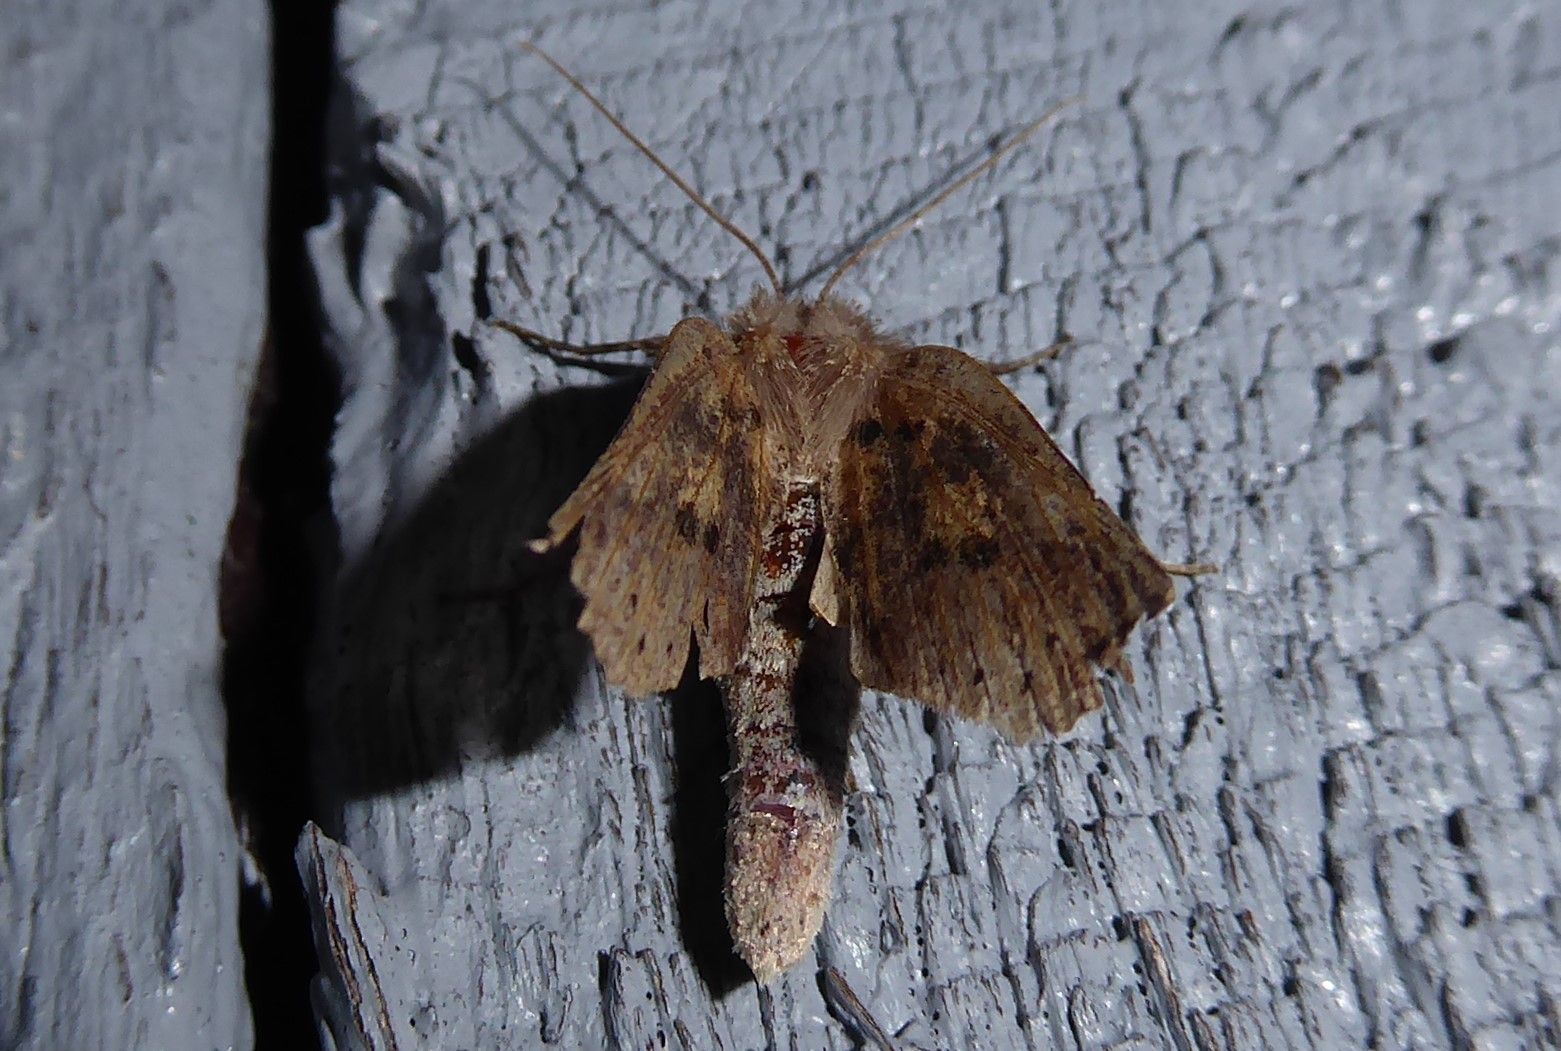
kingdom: Animalia
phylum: Arthropoda
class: Insecta
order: Lepidoptera
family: Geometridae
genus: Declana
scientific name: Declana leptomera
